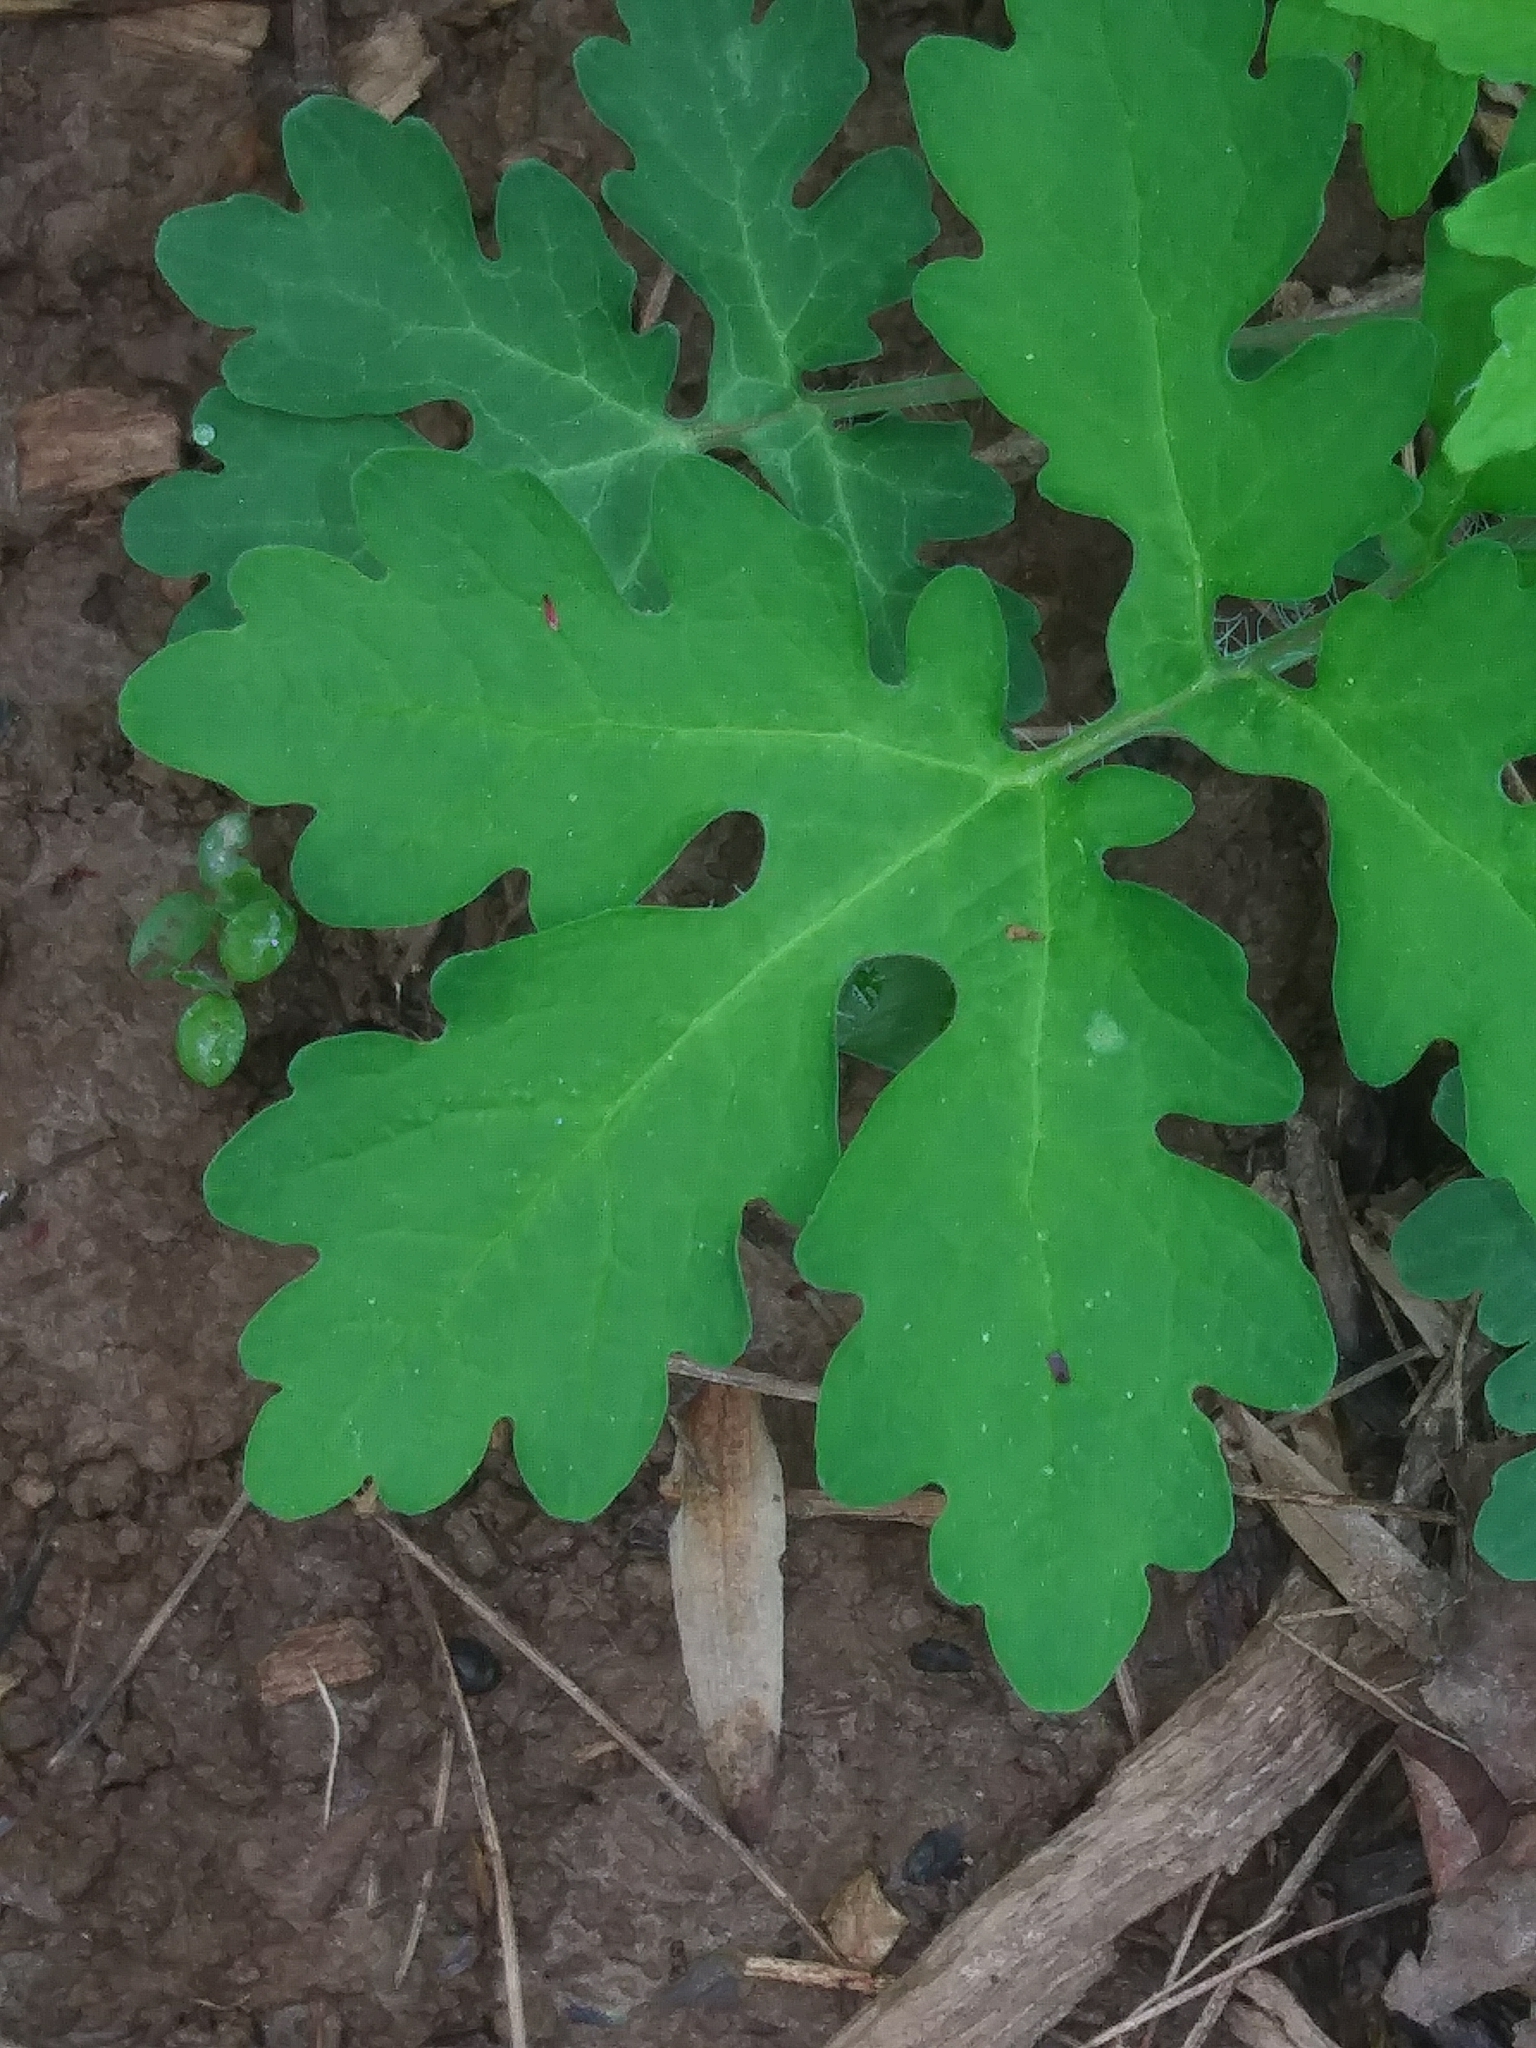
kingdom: Plantae
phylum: Tracheophyta
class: Magnoliopsida
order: Ranunculales
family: Papaveraceae
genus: Stylophorum
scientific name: Stylophorum diphyllum
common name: Celandine poppy
